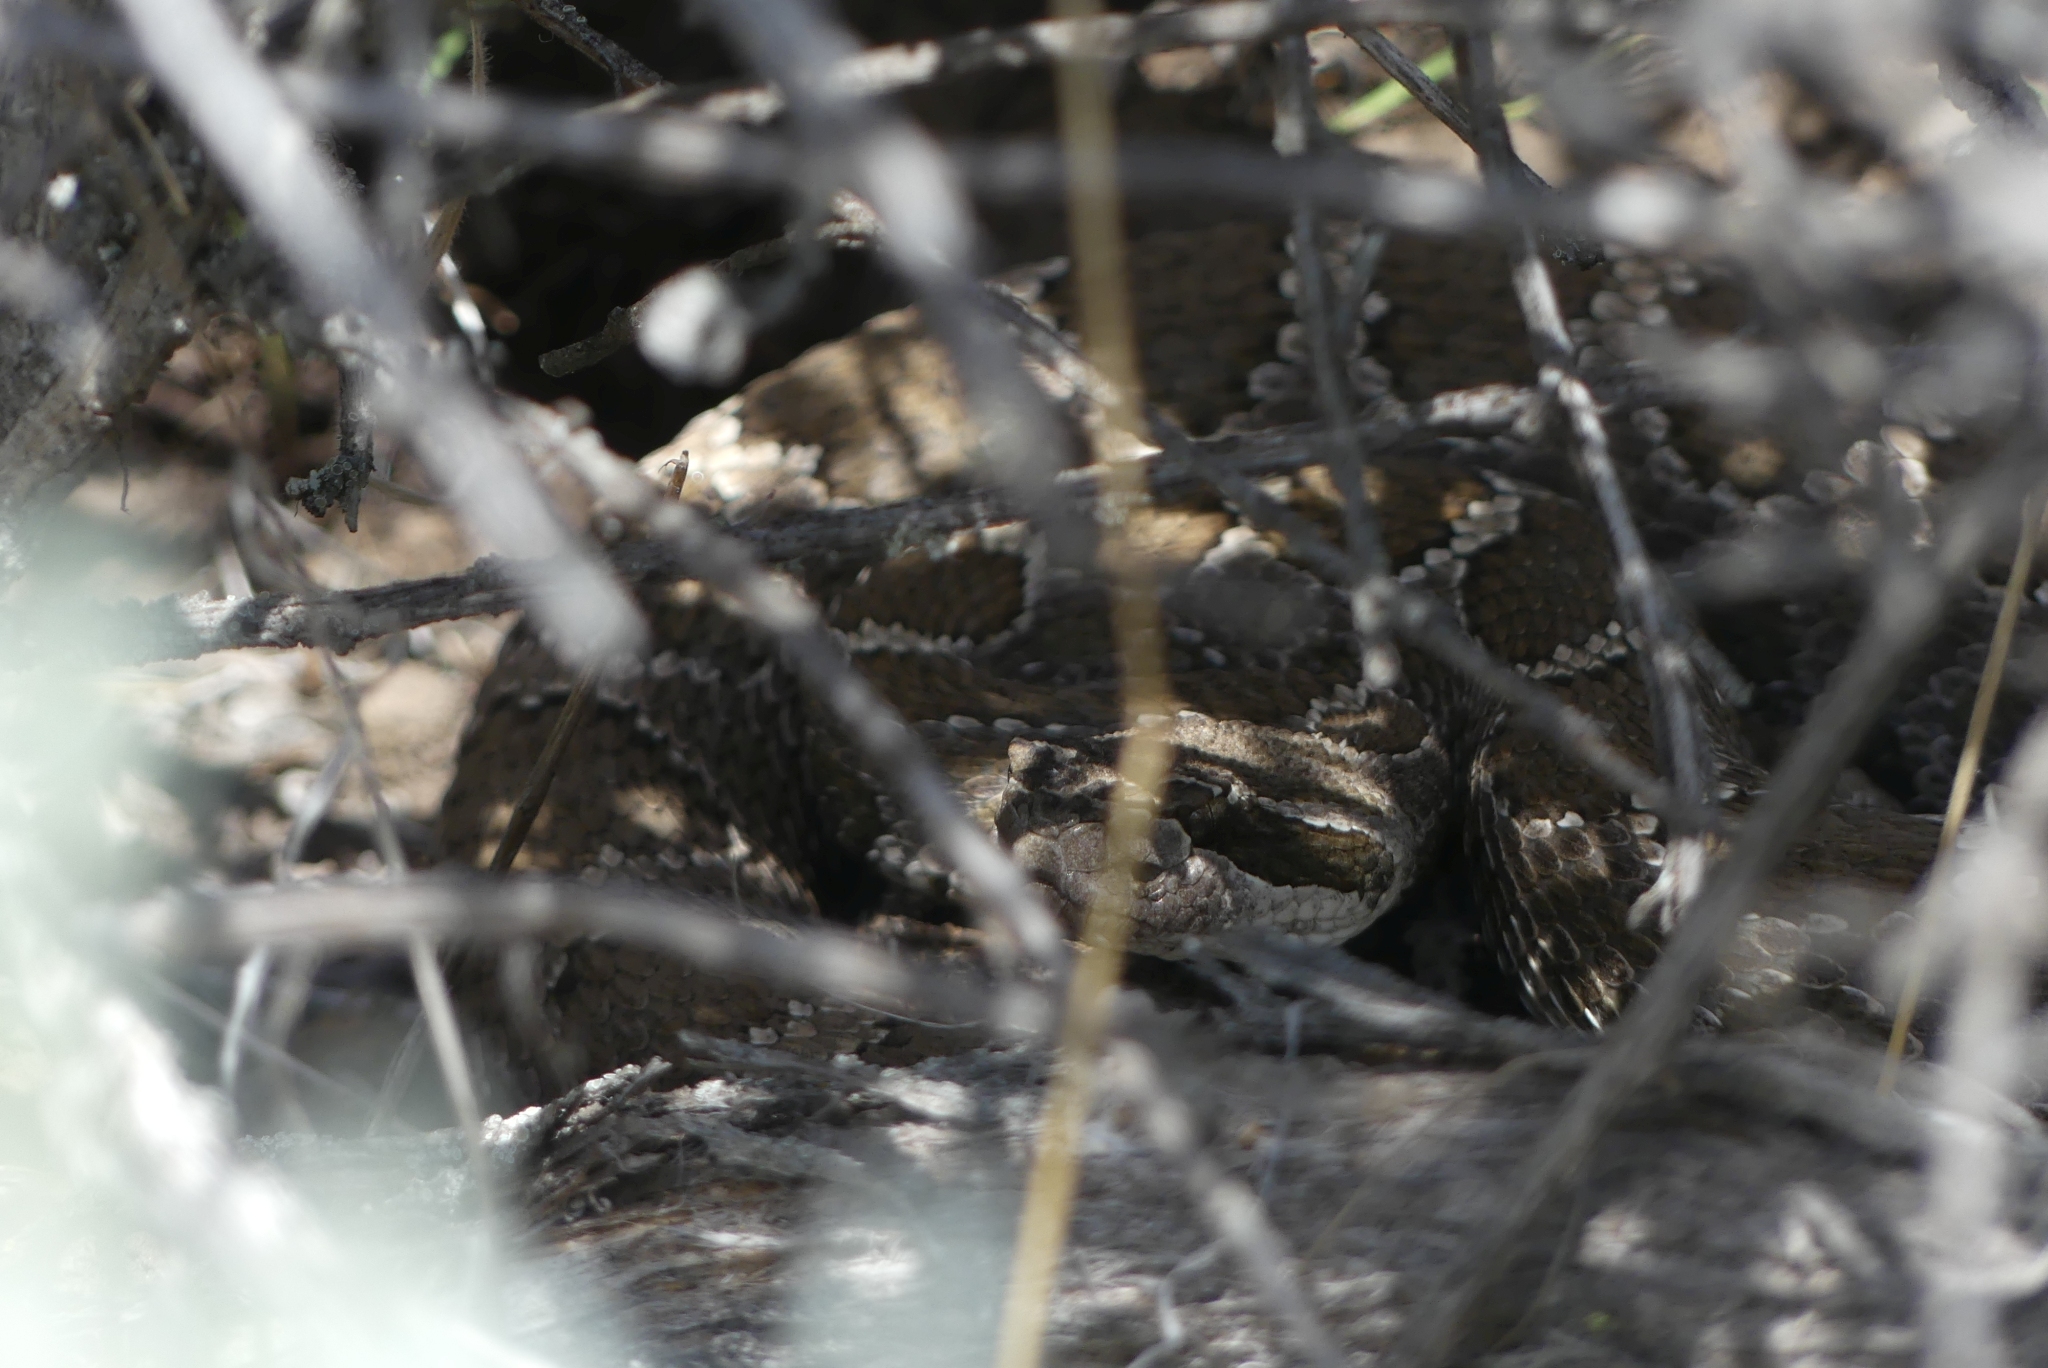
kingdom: Animalia
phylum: Chordata
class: Squamata
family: Viperidae
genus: Crotalus
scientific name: Crotalus oreganus
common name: Abyssus
